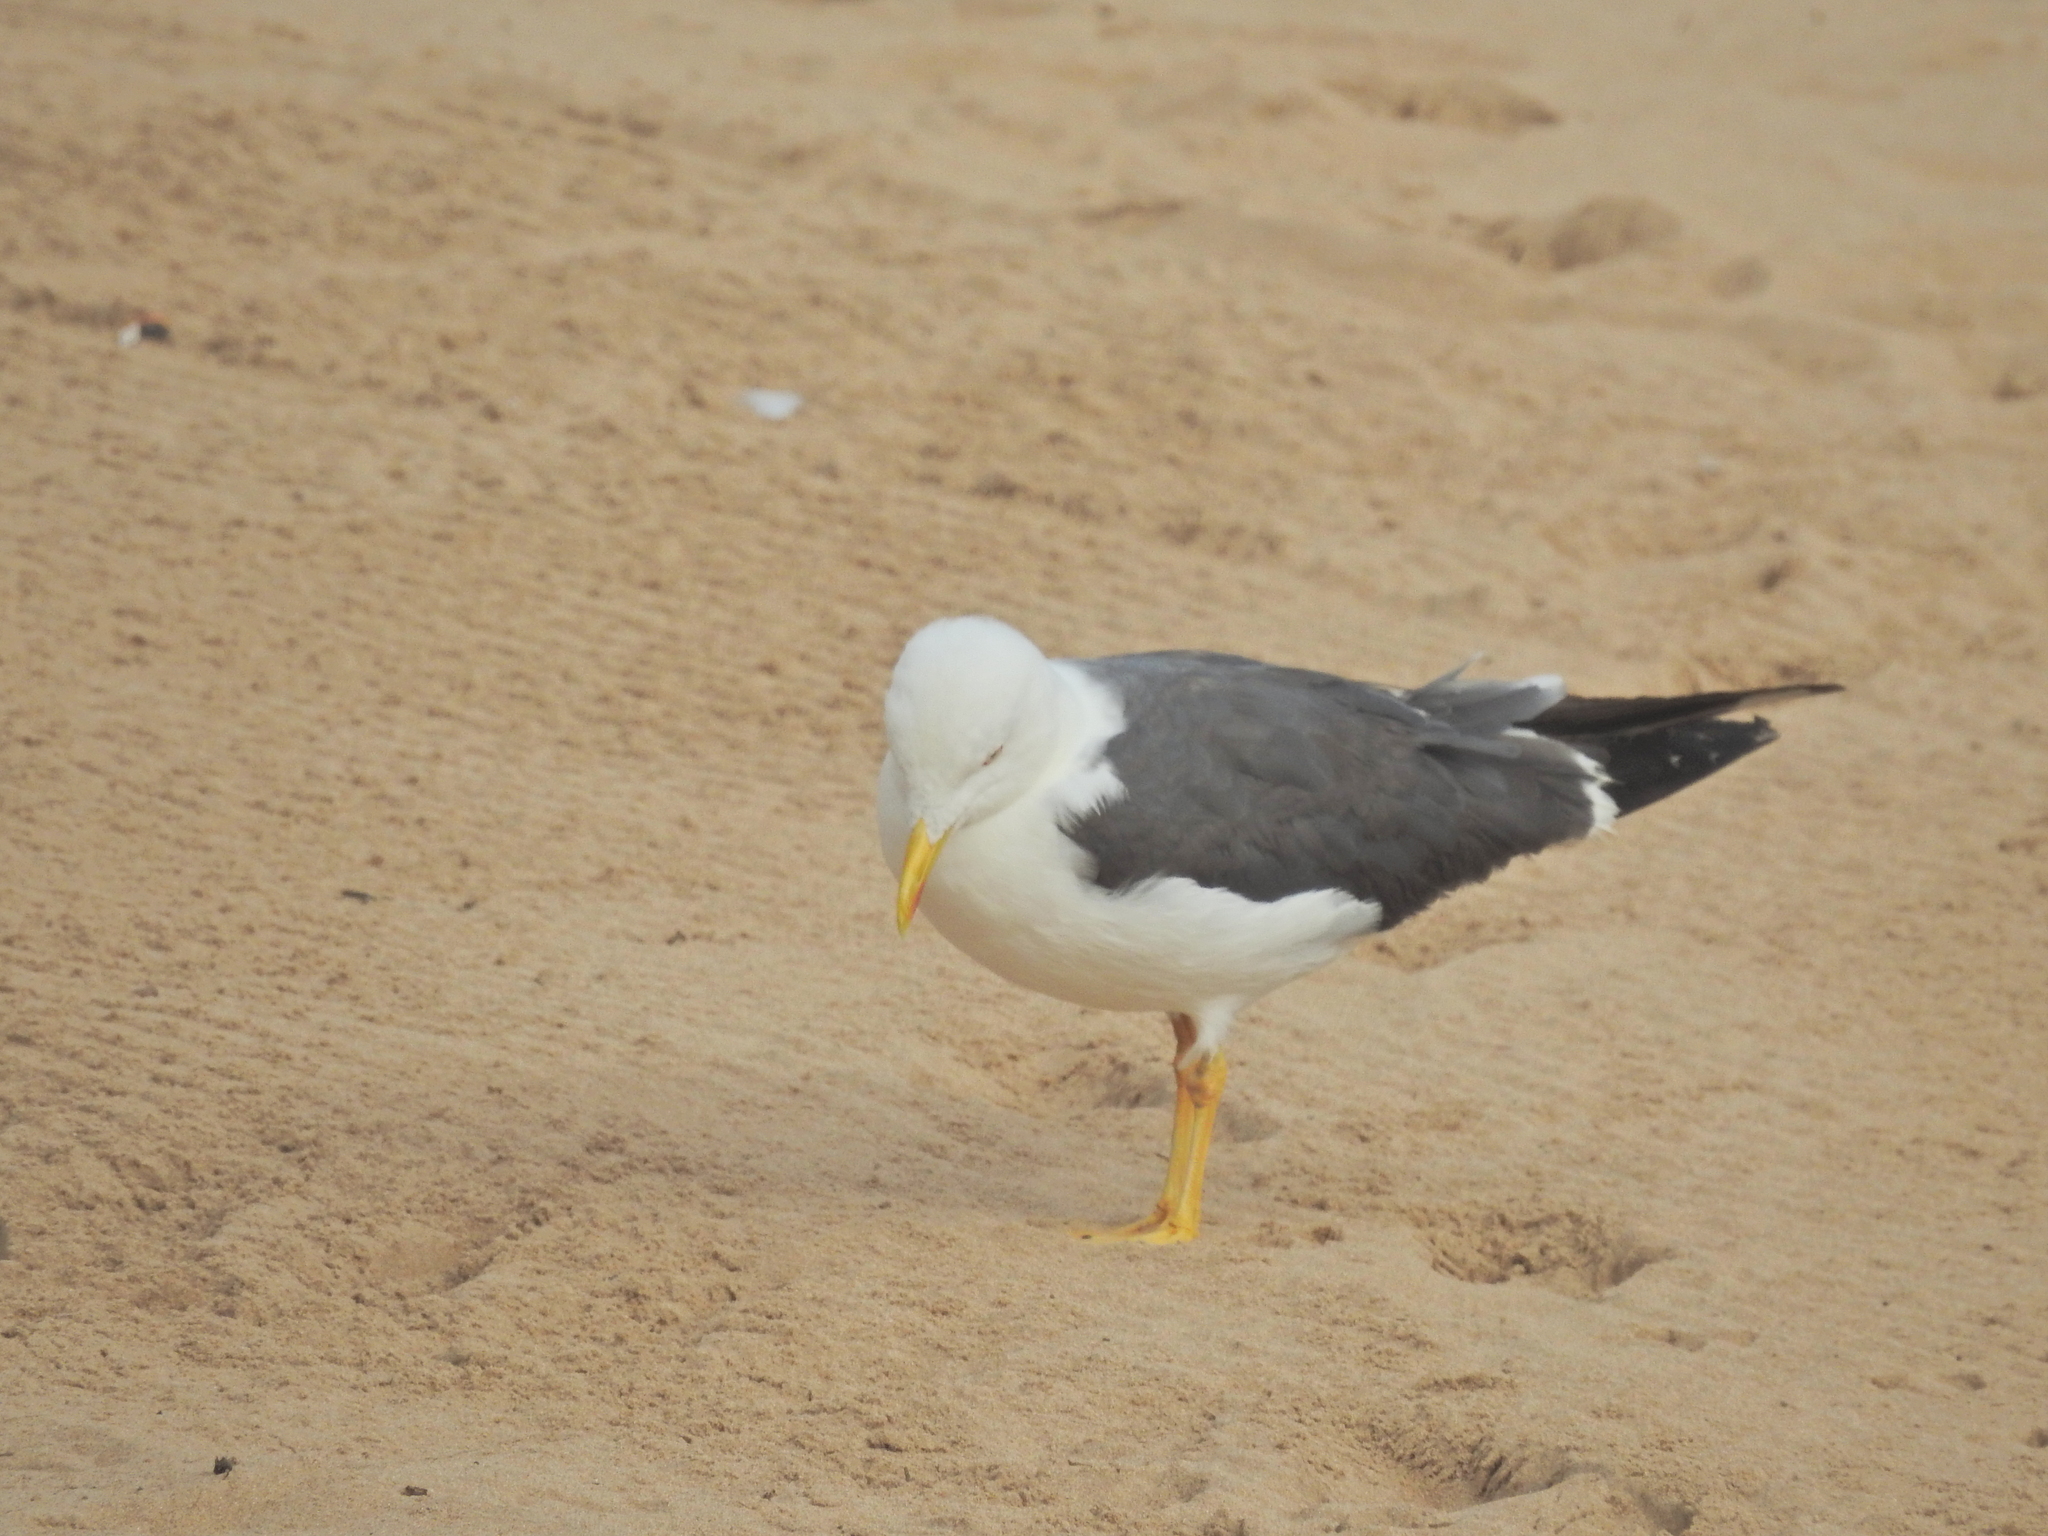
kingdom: Animalia
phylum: Chordata
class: Aves
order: Charadriiformes
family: Laridae
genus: Larus
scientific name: Larus fuscus
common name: Lesser black-backed gull
